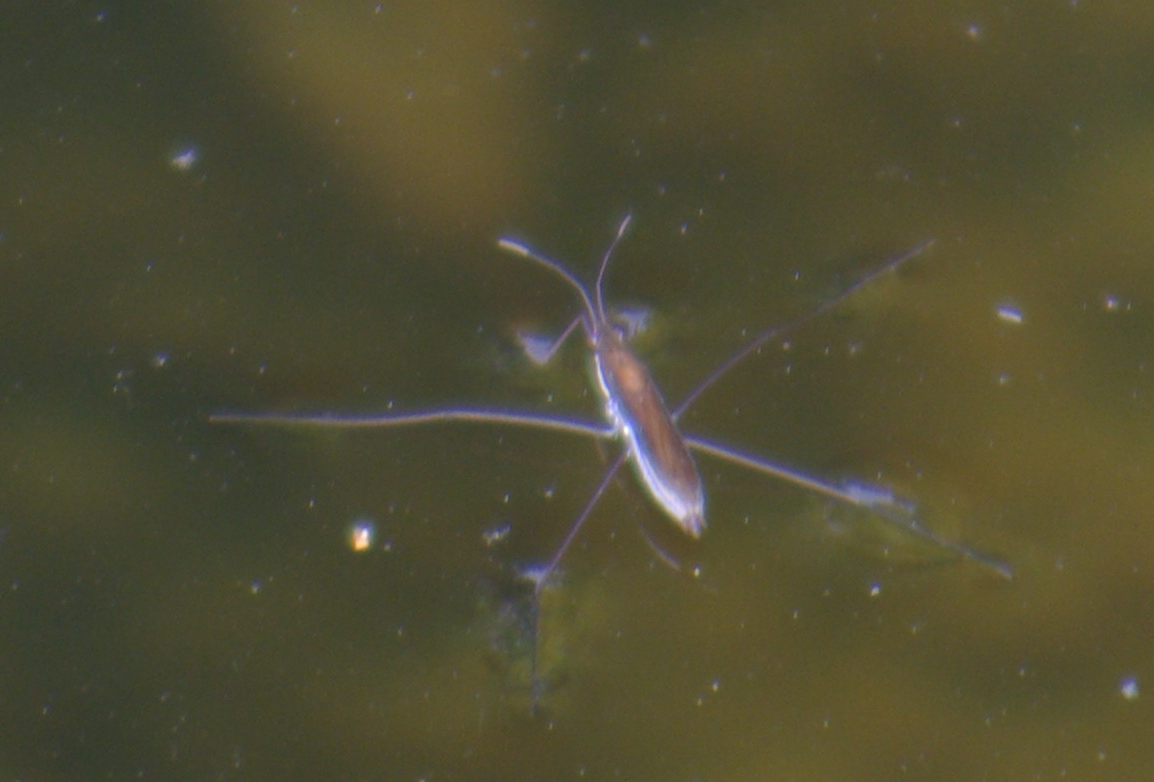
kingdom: Animalia
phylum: Arthropoda
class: Insecta
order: Hemiptera
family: Gerridae
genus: Limnoporus
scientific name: Limnoporus dissortis
